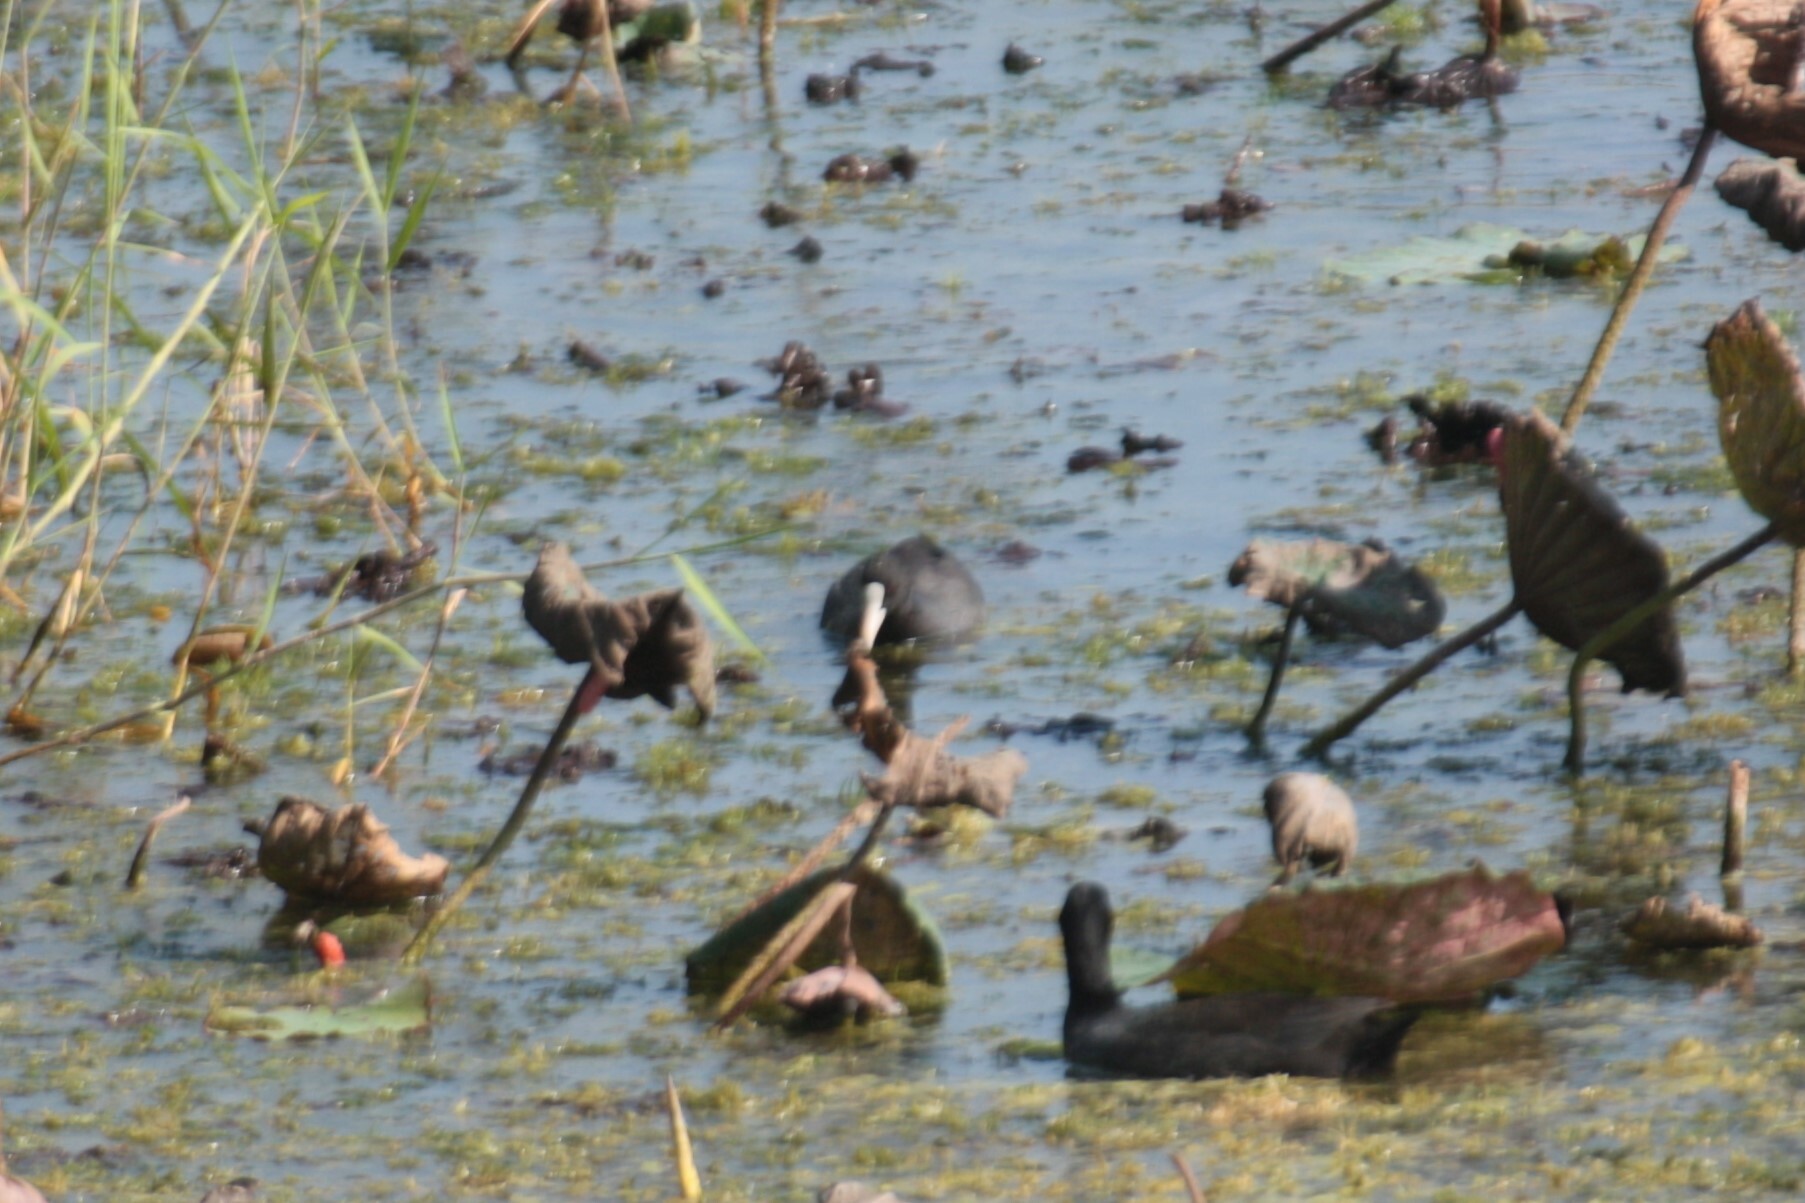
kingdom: Animalia
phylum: Chordata
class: Aves
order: Gruiformes
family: Rallidae
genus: Fulica
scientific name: Fulica atra
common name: Eurasian coot
